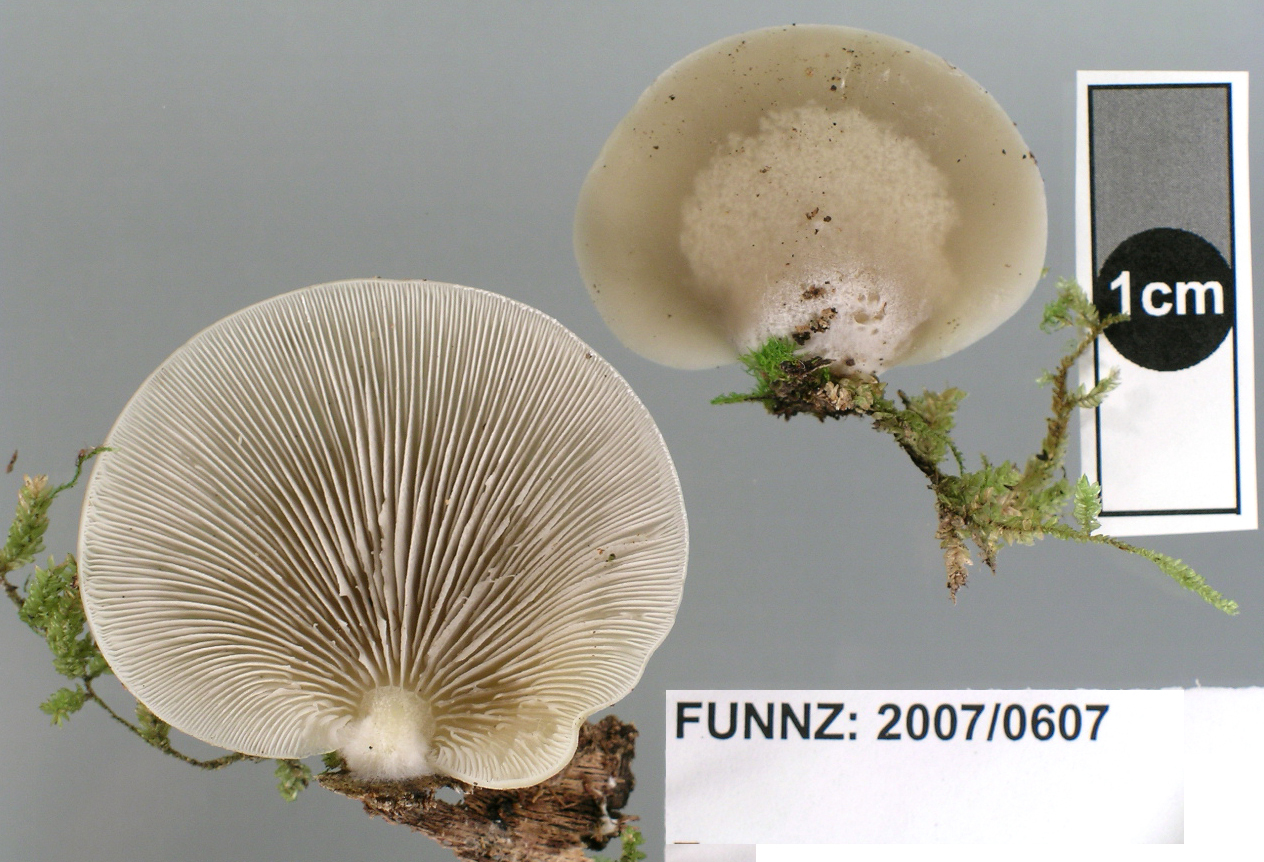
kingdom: Fungi
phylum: Basidiomycota
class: Agaricomycetes
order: Agaricales
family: Tricholomataceae
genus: Conchomyces
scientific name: Conchomyces bursiformis
